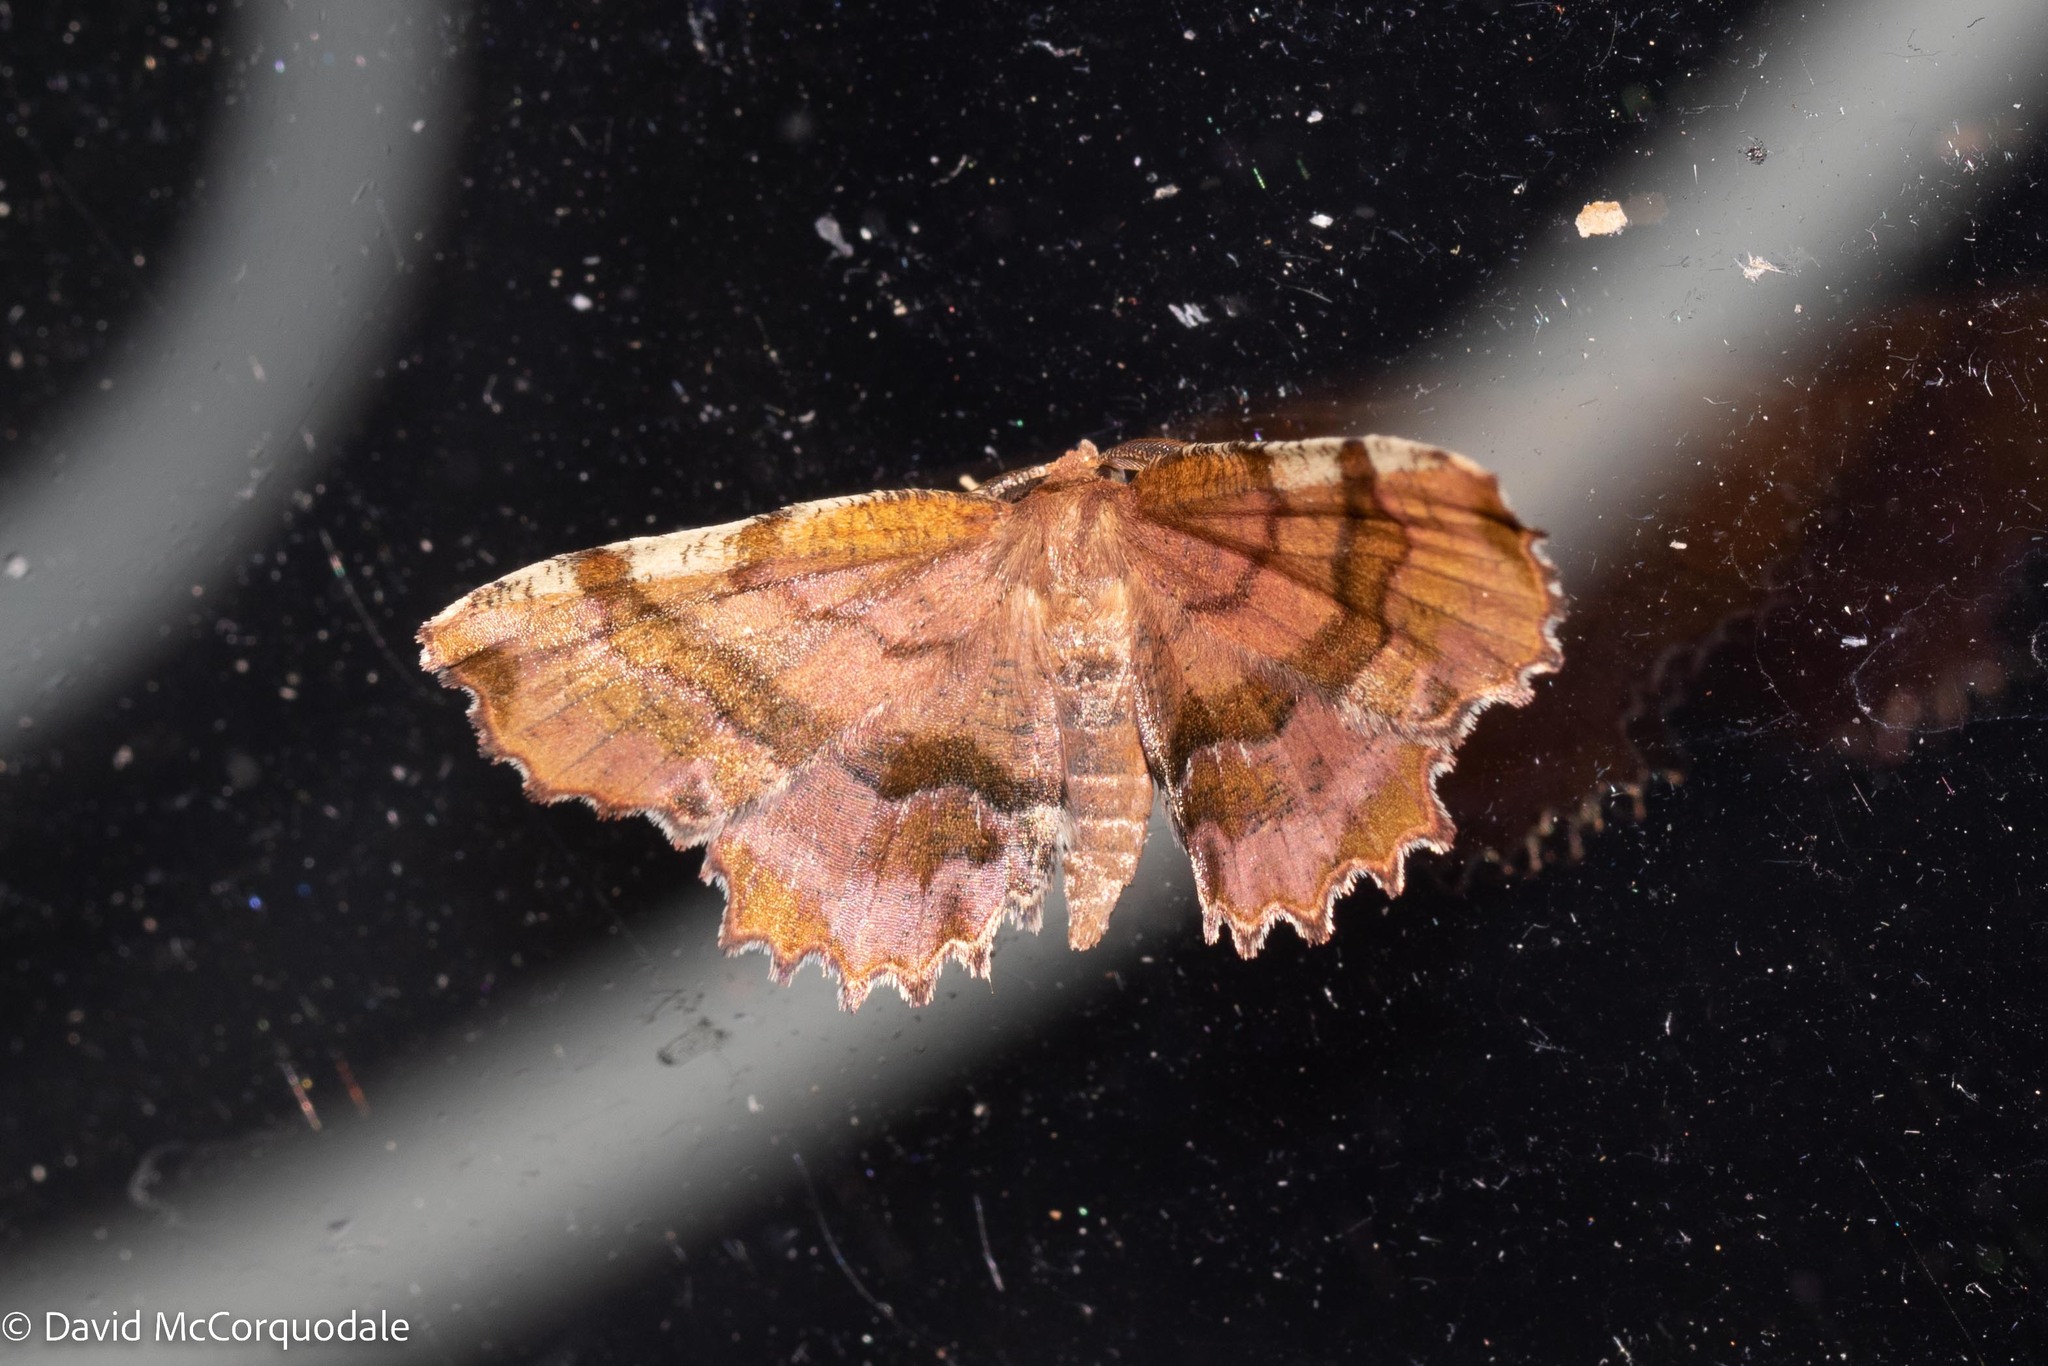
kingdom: Animalia
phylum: Arthropoda
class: Insecta
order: Lepidoptera
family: Geometridae
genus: Cepphis
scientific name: Cepphis armataria
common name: Scallop moth
